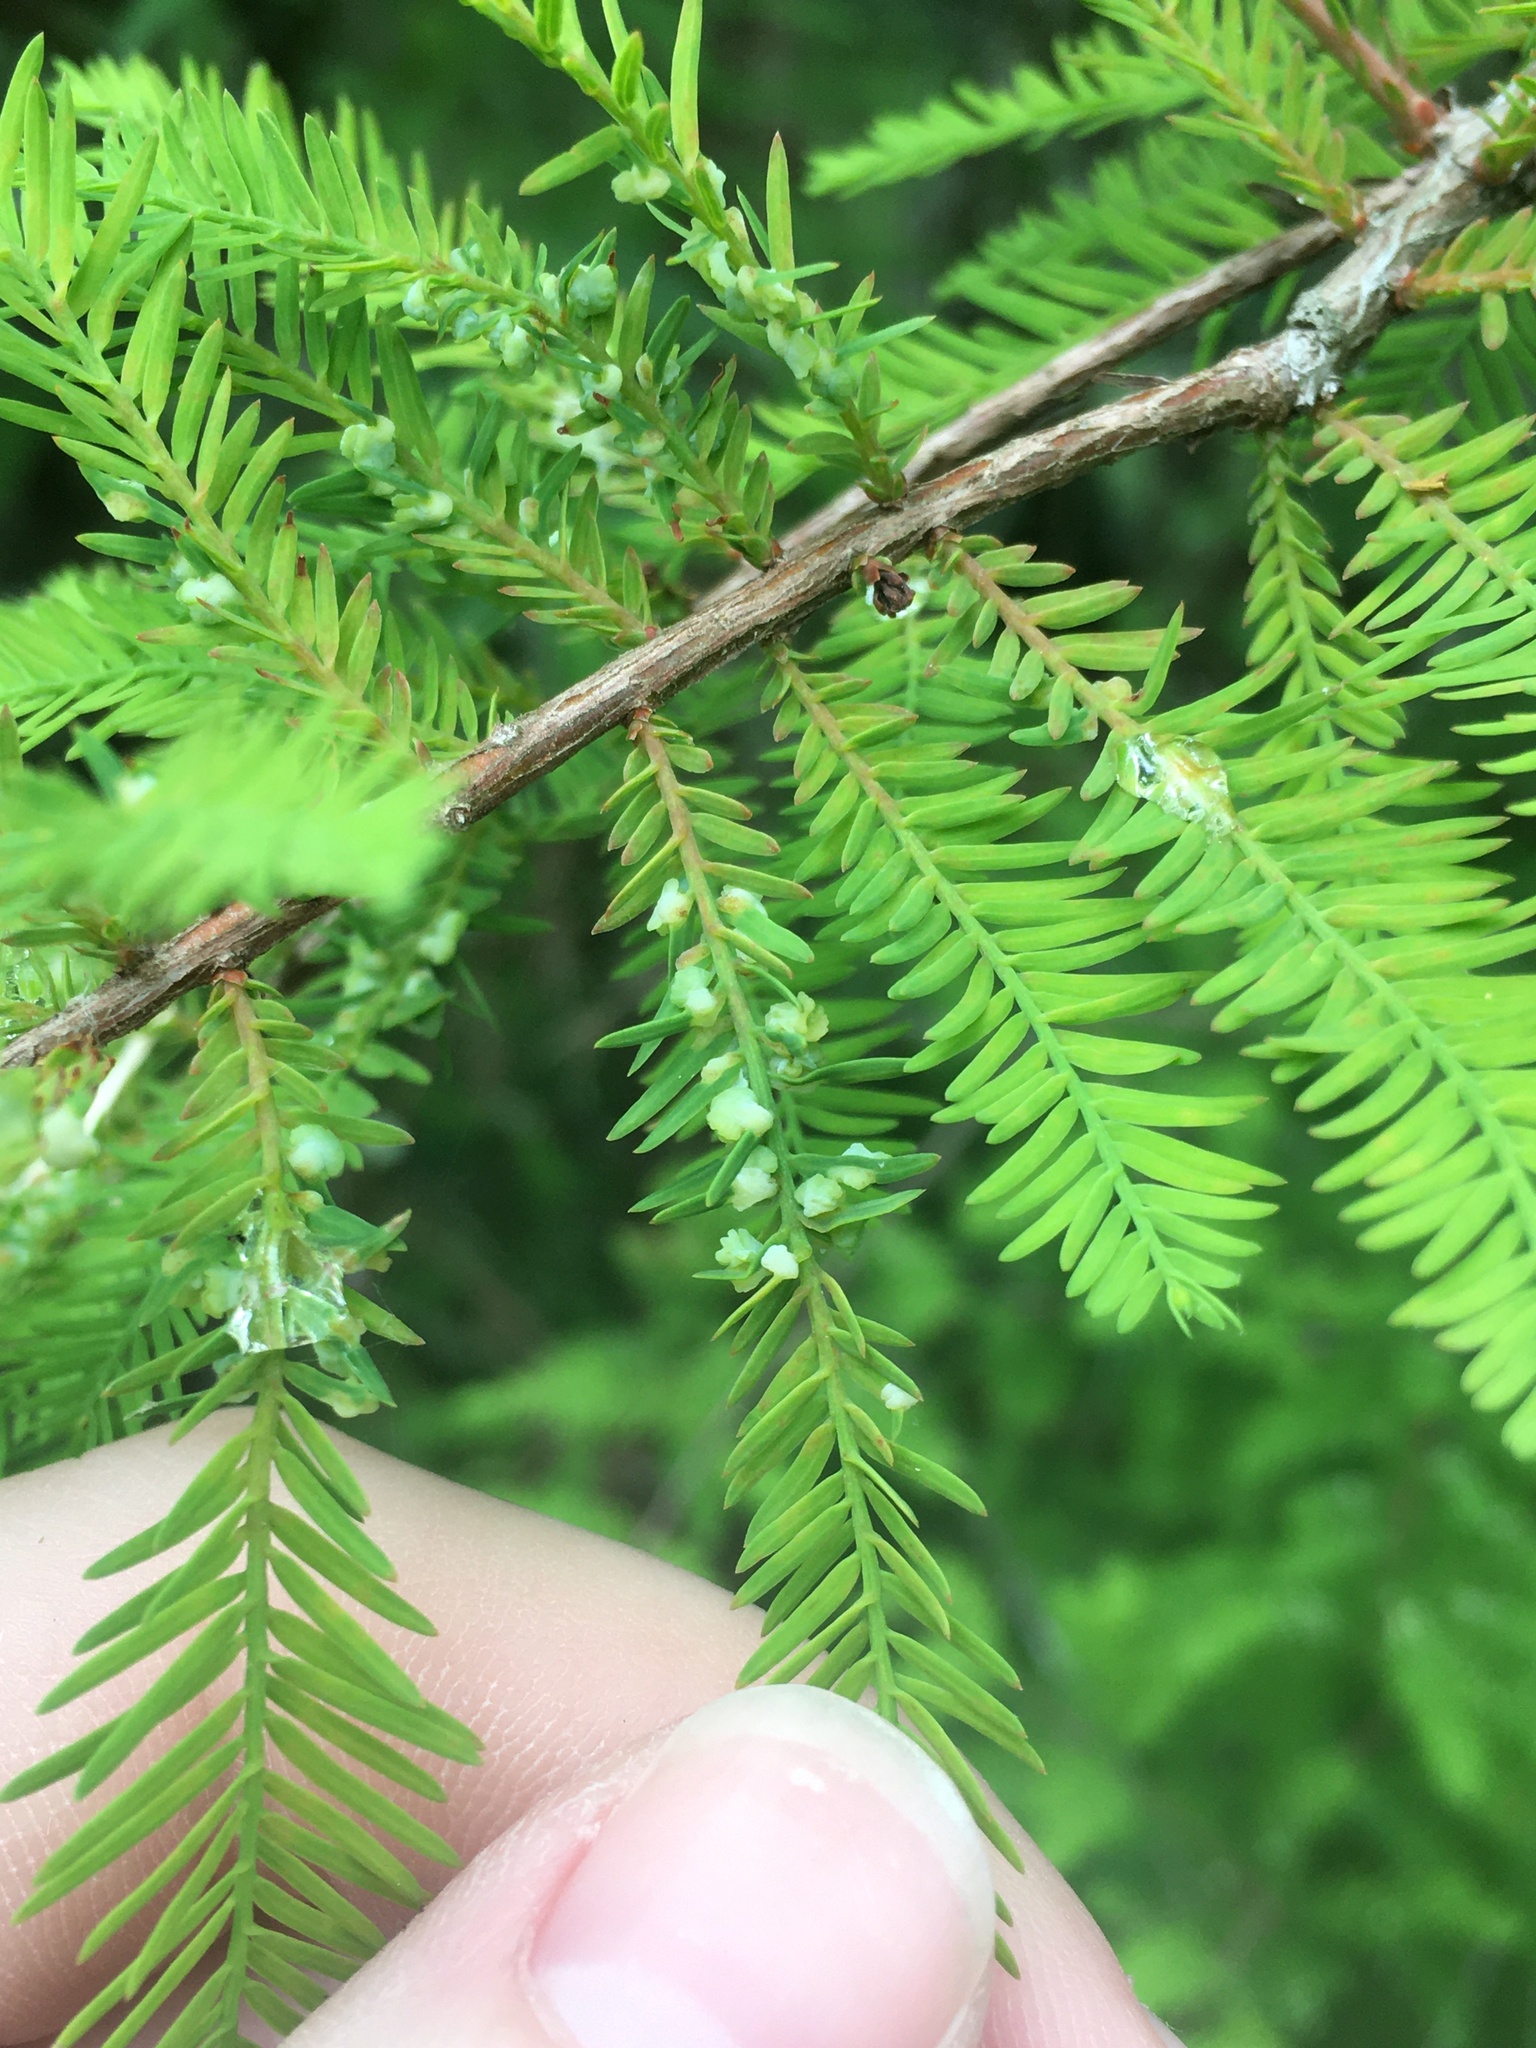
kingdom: Animalia
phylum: Arthropoda
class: Insecta
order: Diptera
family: Cecidomyiidae
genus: Taxodiomyia
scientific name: Taxodiomyia cupressi
